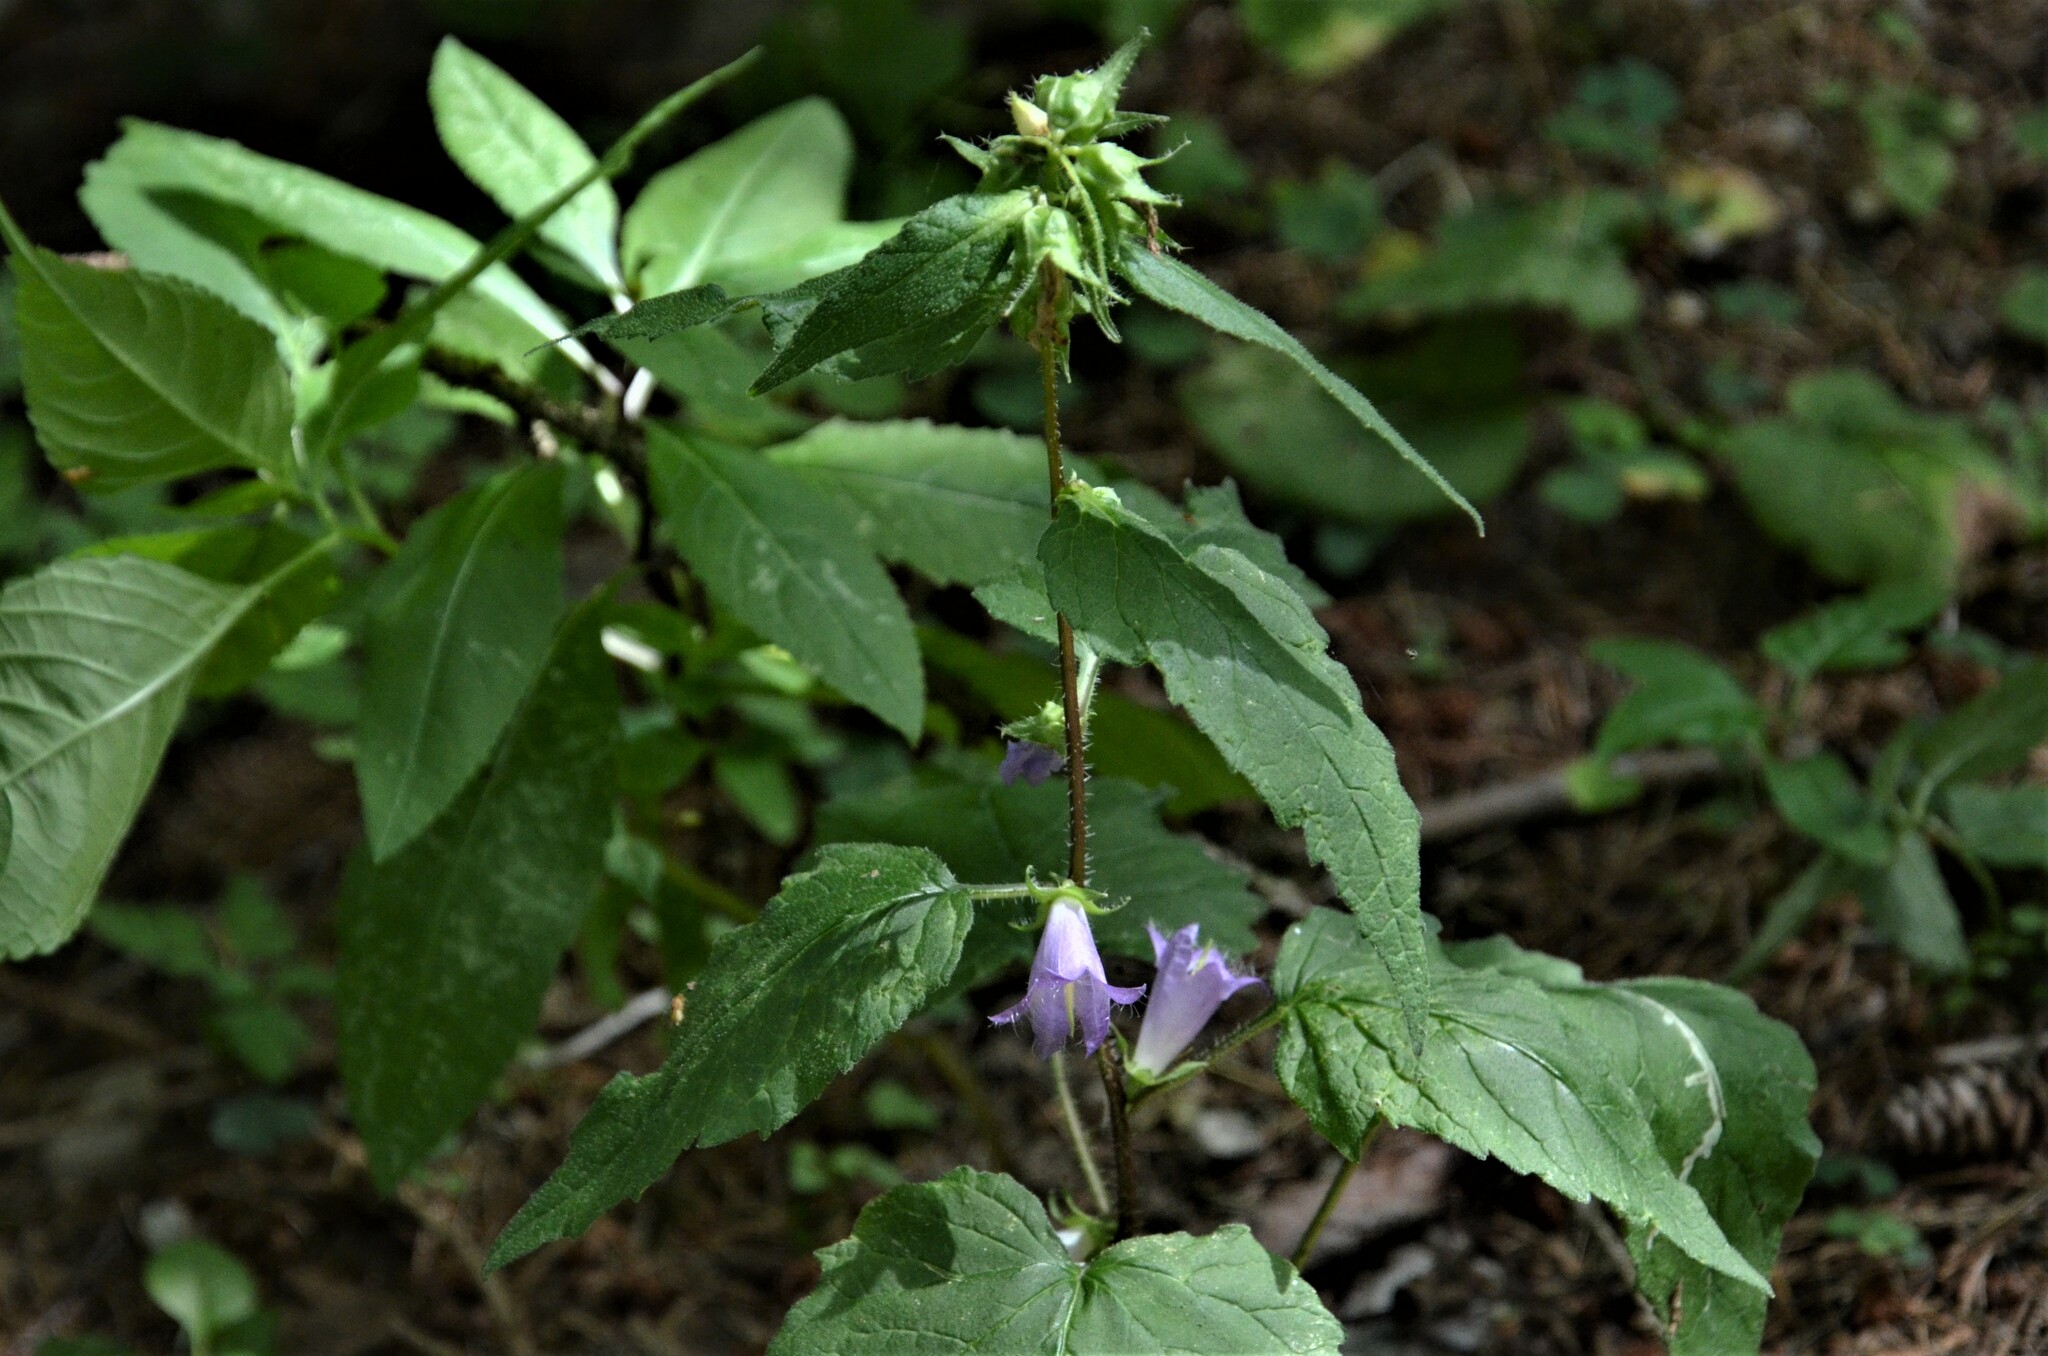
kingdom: Plantae
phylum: Tracheophyta
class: Magnoliopsida
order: Asterales
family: Campanulaceae
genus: Campanula
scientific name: Campanula trachelium
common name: Nettle-leaved bellflower
